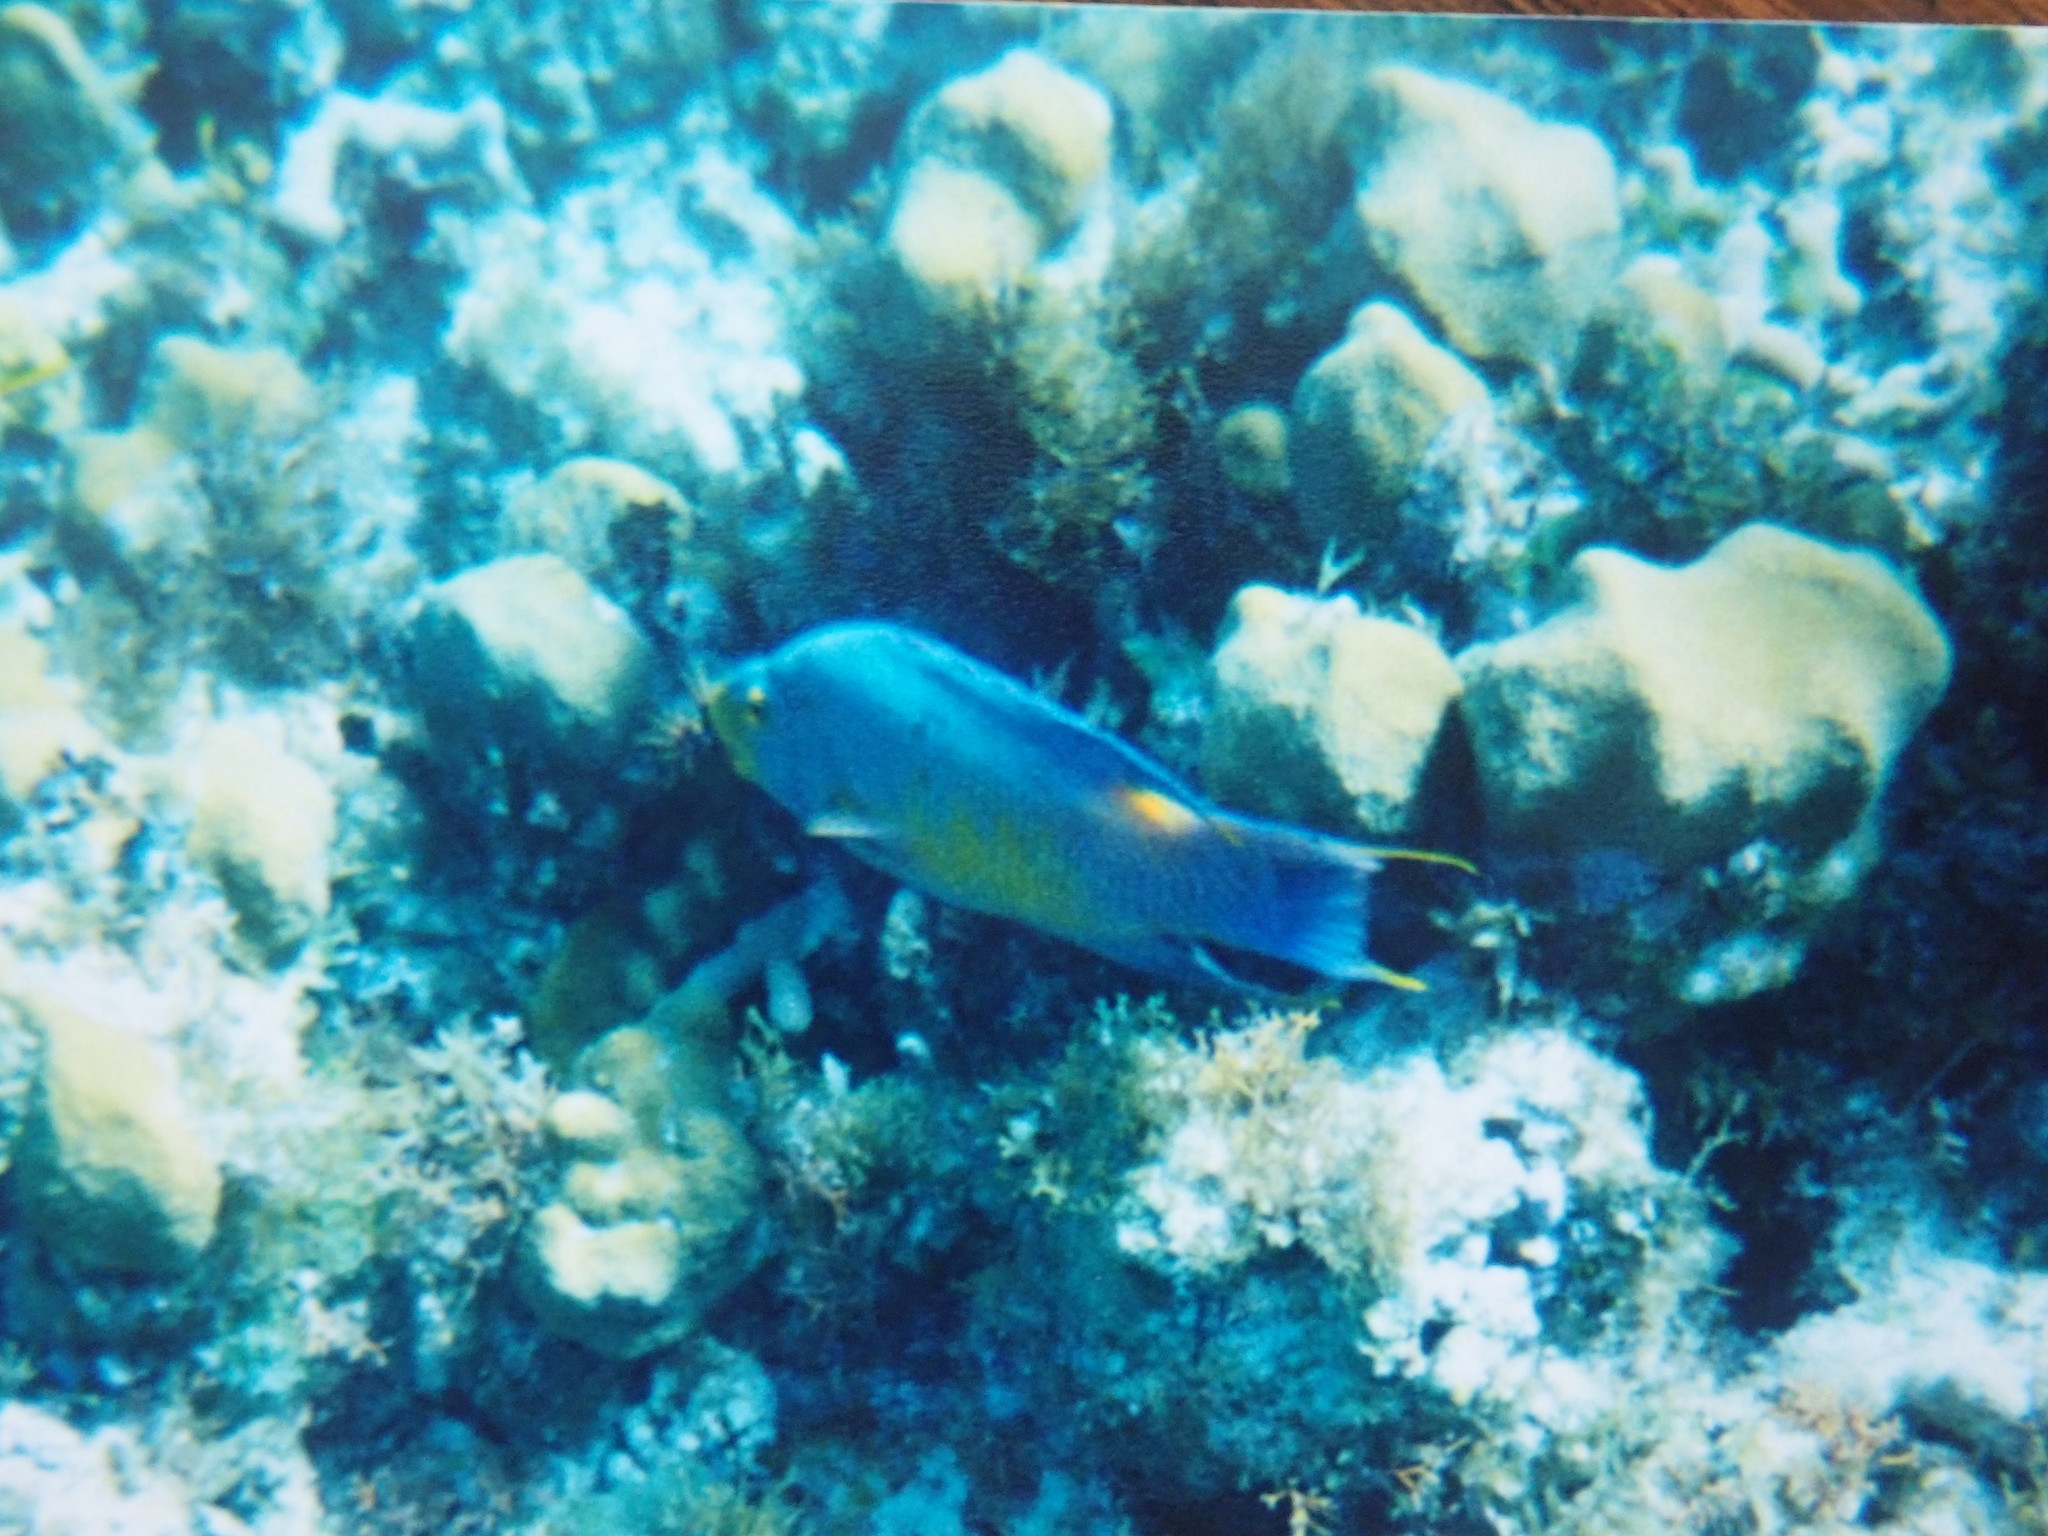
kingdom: Animalia
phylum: Chordata
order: Perciformes
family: Labridae
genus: Bodianus
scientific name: Bodianus rufus
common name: Spanish hogfish
